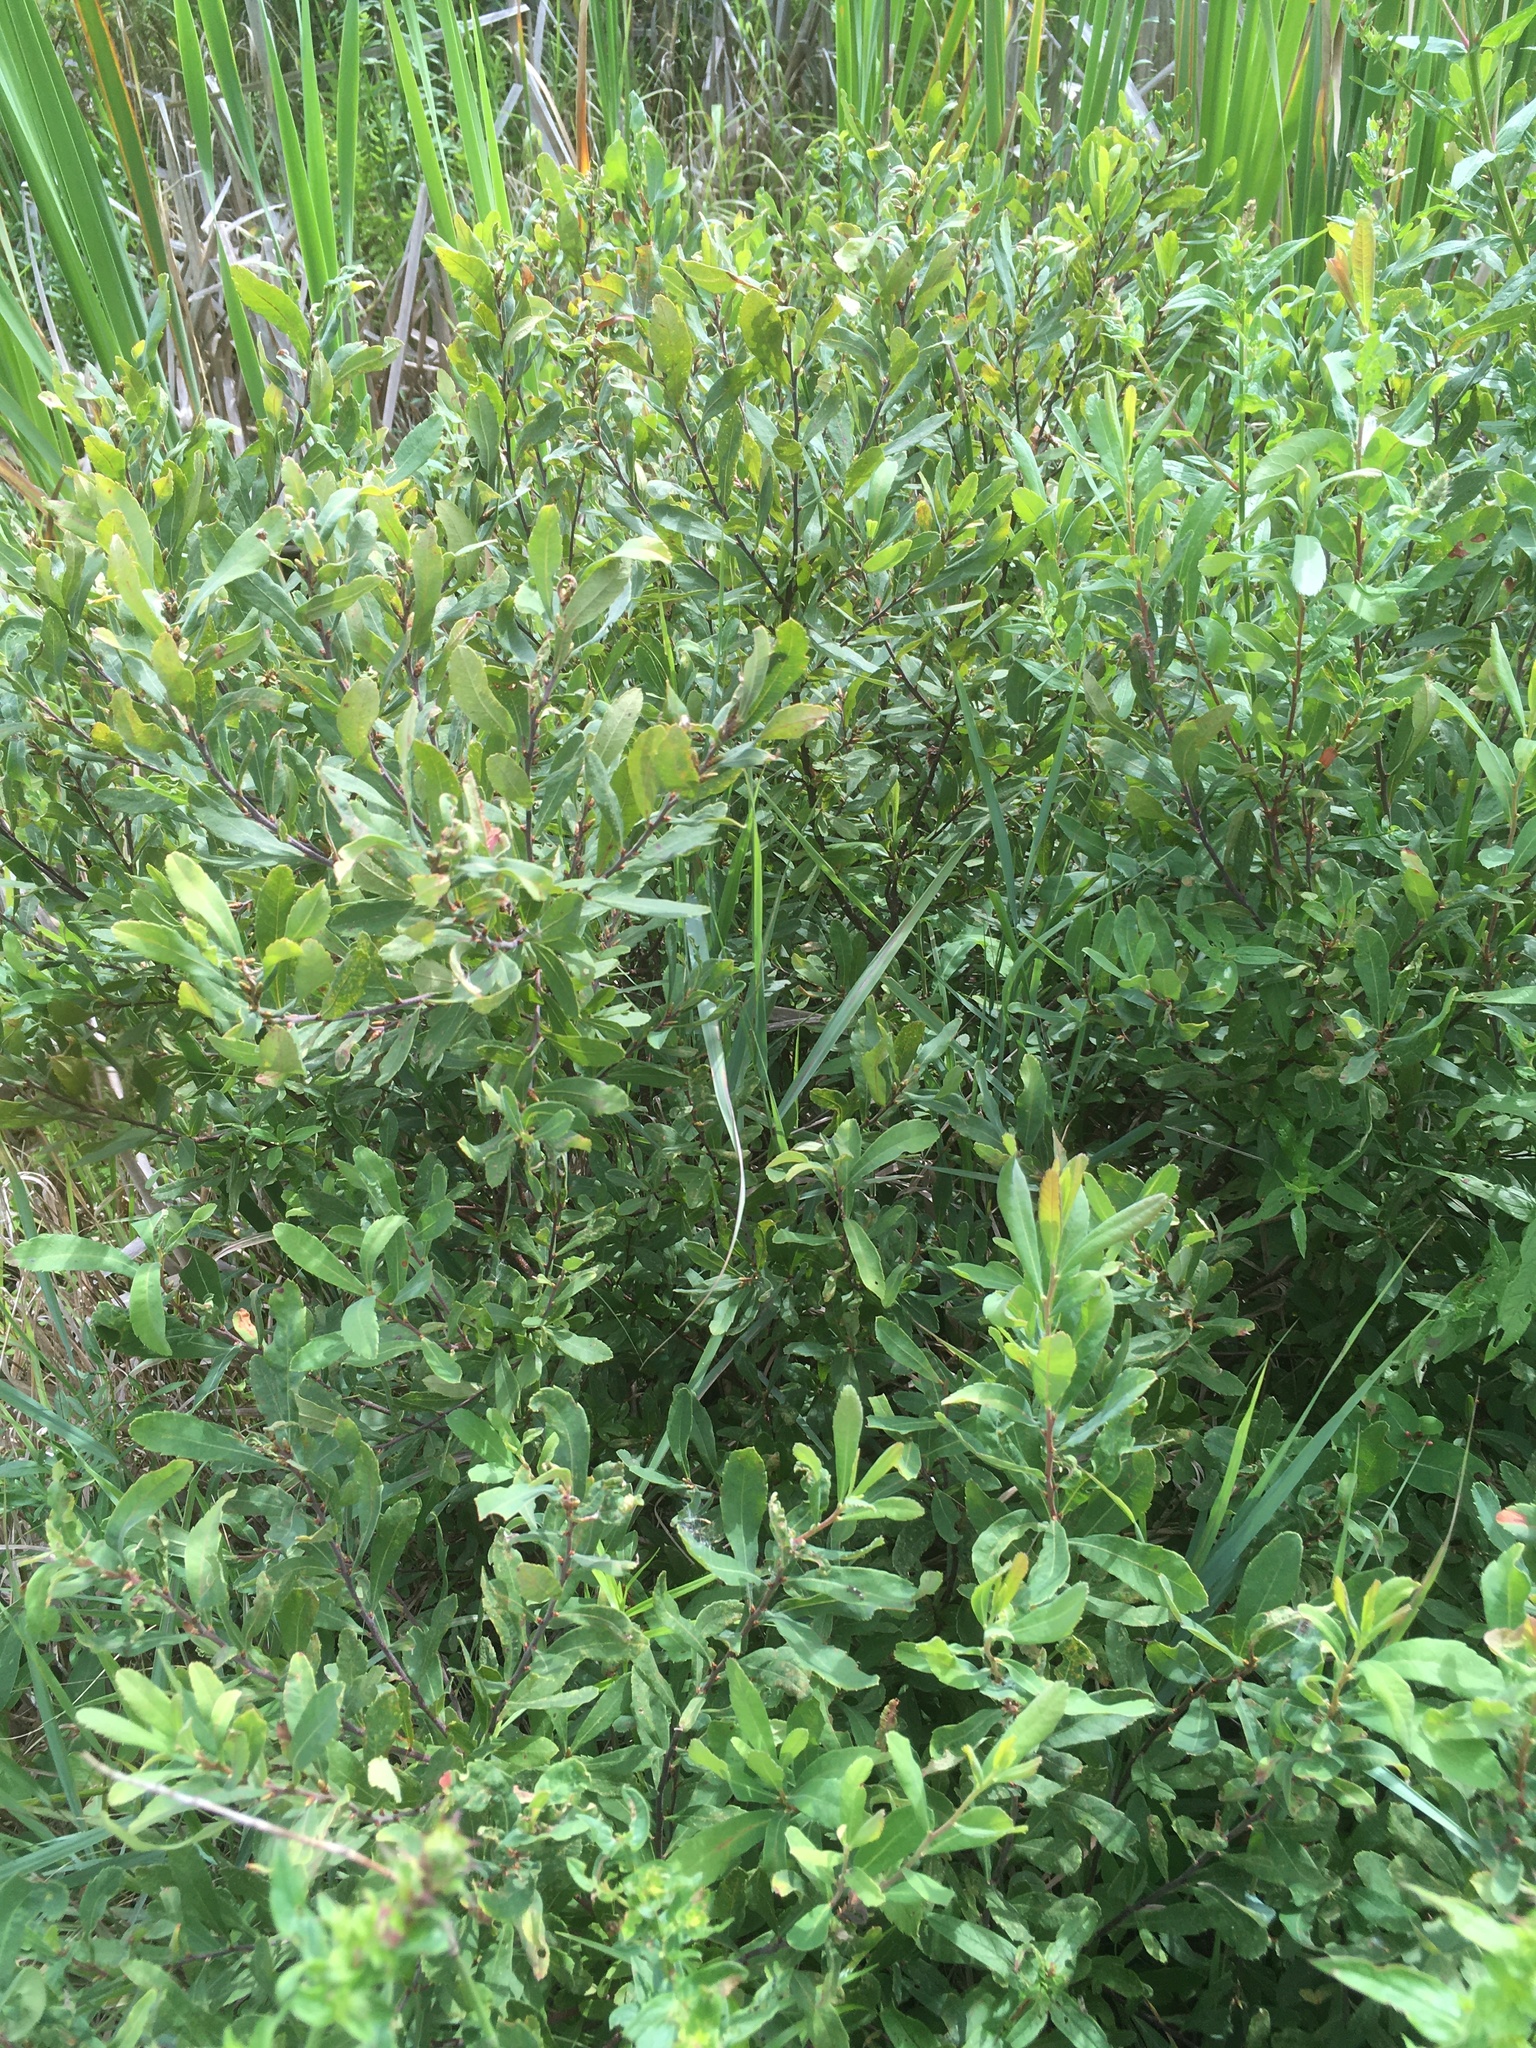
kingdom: Plantae
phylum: Tracheophyta
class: Magnoliopsida
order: Fagales
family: Myricaceae
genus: Myrica
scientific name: Myrica gale
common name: Sweet gale
